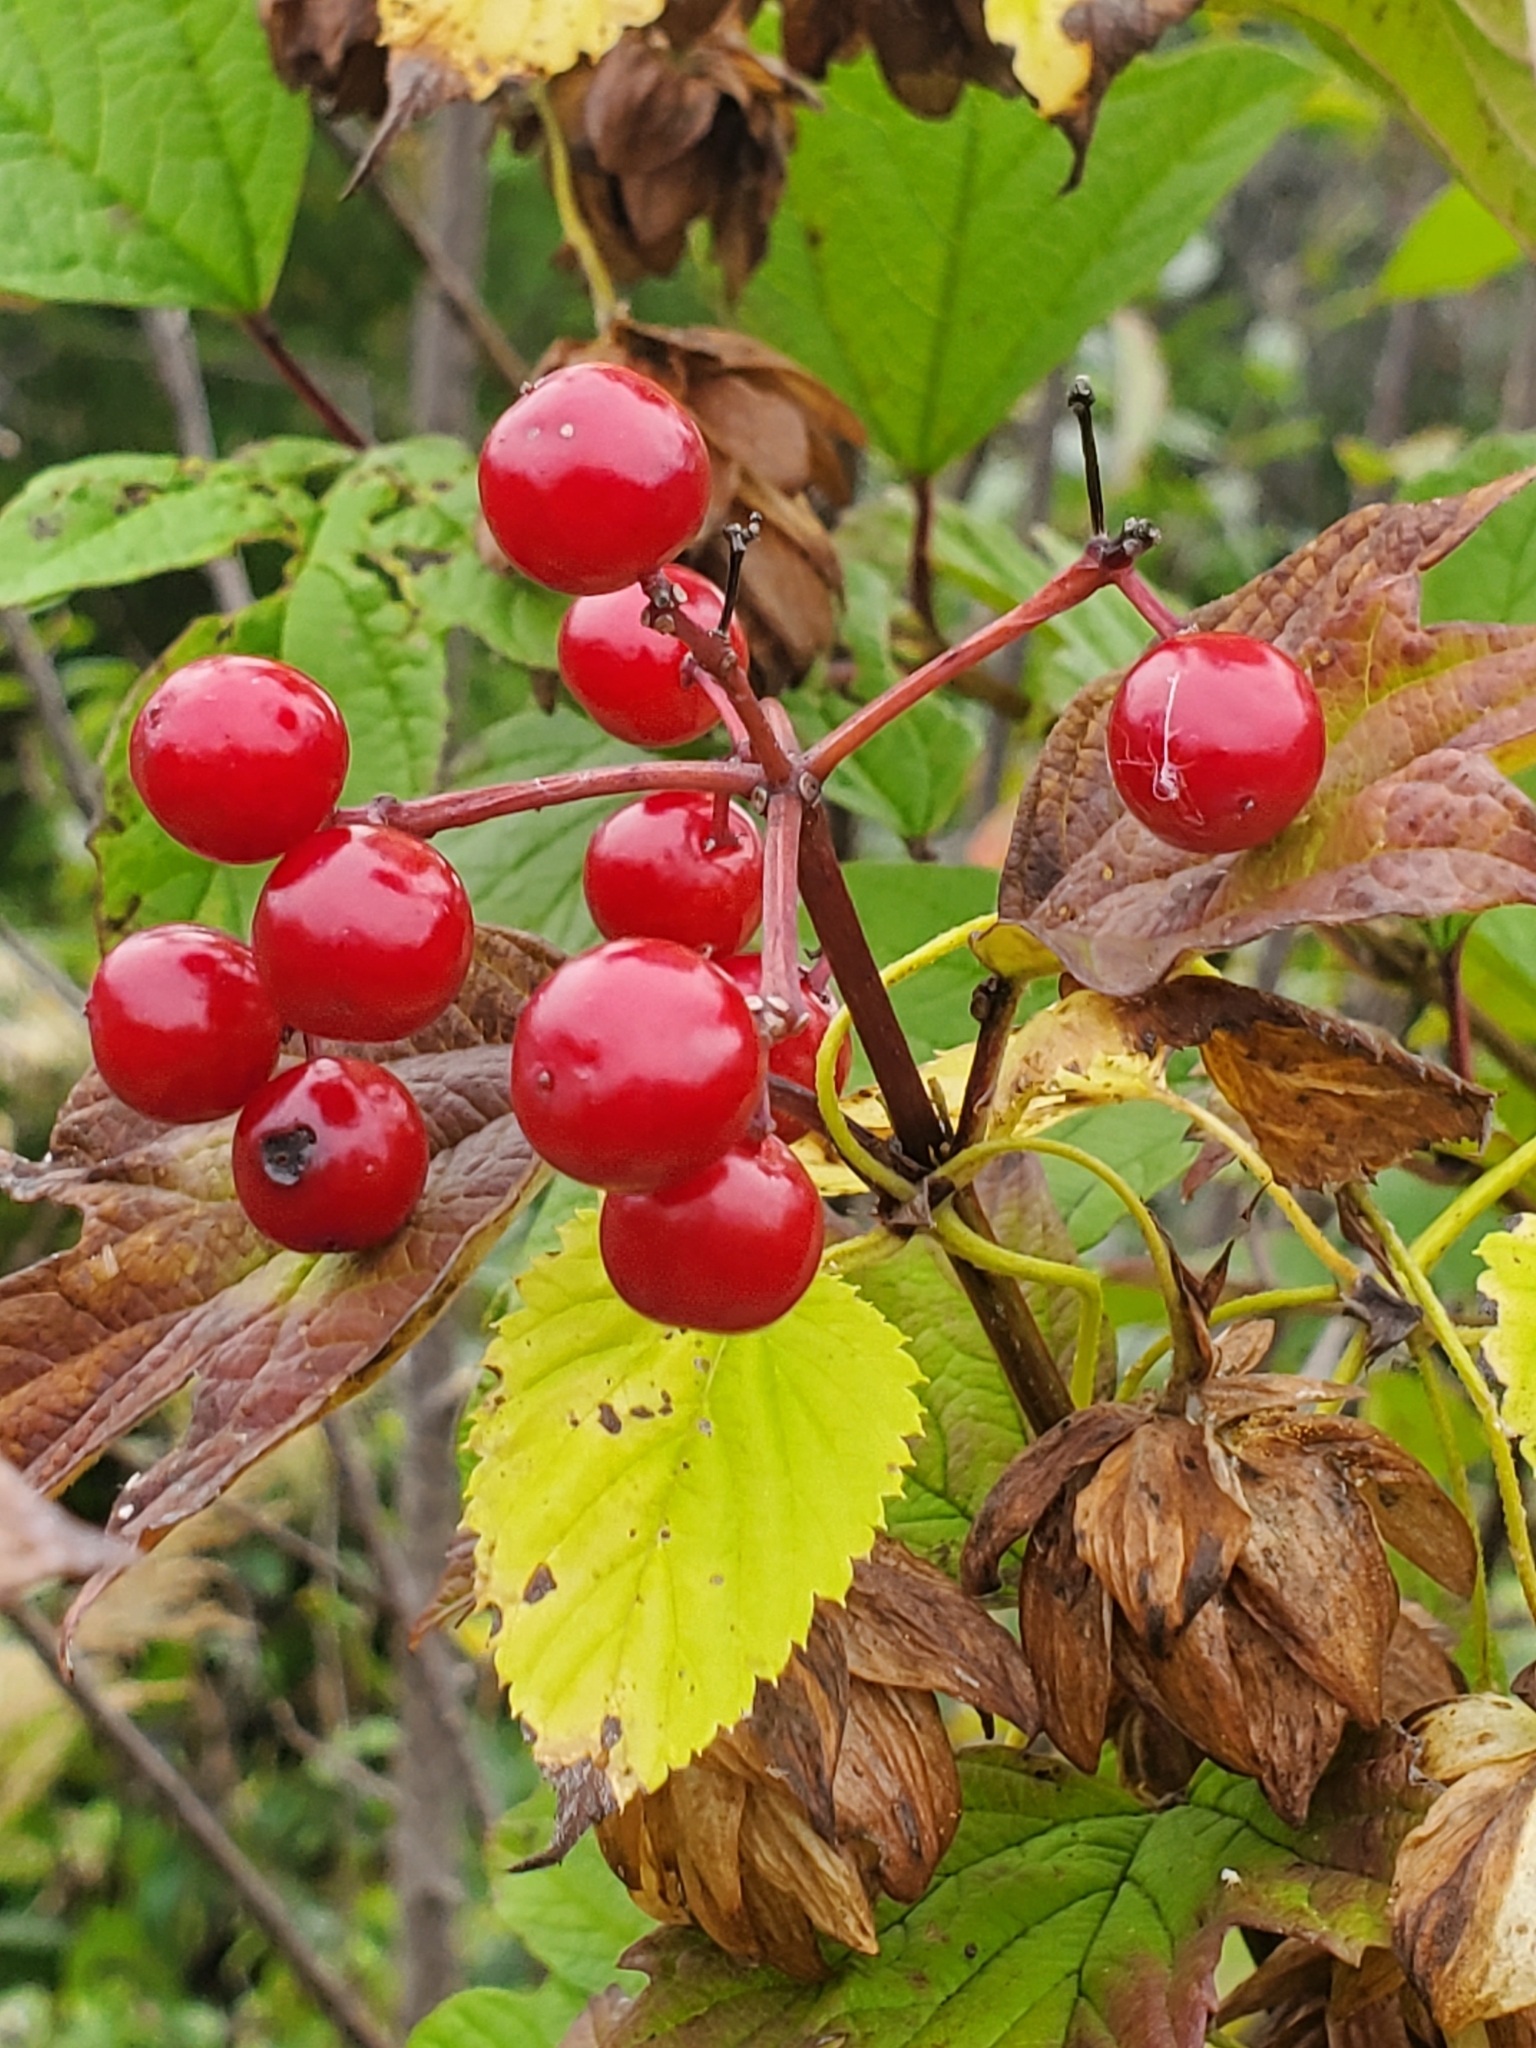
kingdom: Plantae
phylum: Tracheophyta
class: Magnoliopsida
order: Dipsacales
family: Viburnaceae
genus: Viburnum
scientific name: Viburnum opulus
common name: Guelder-rose
